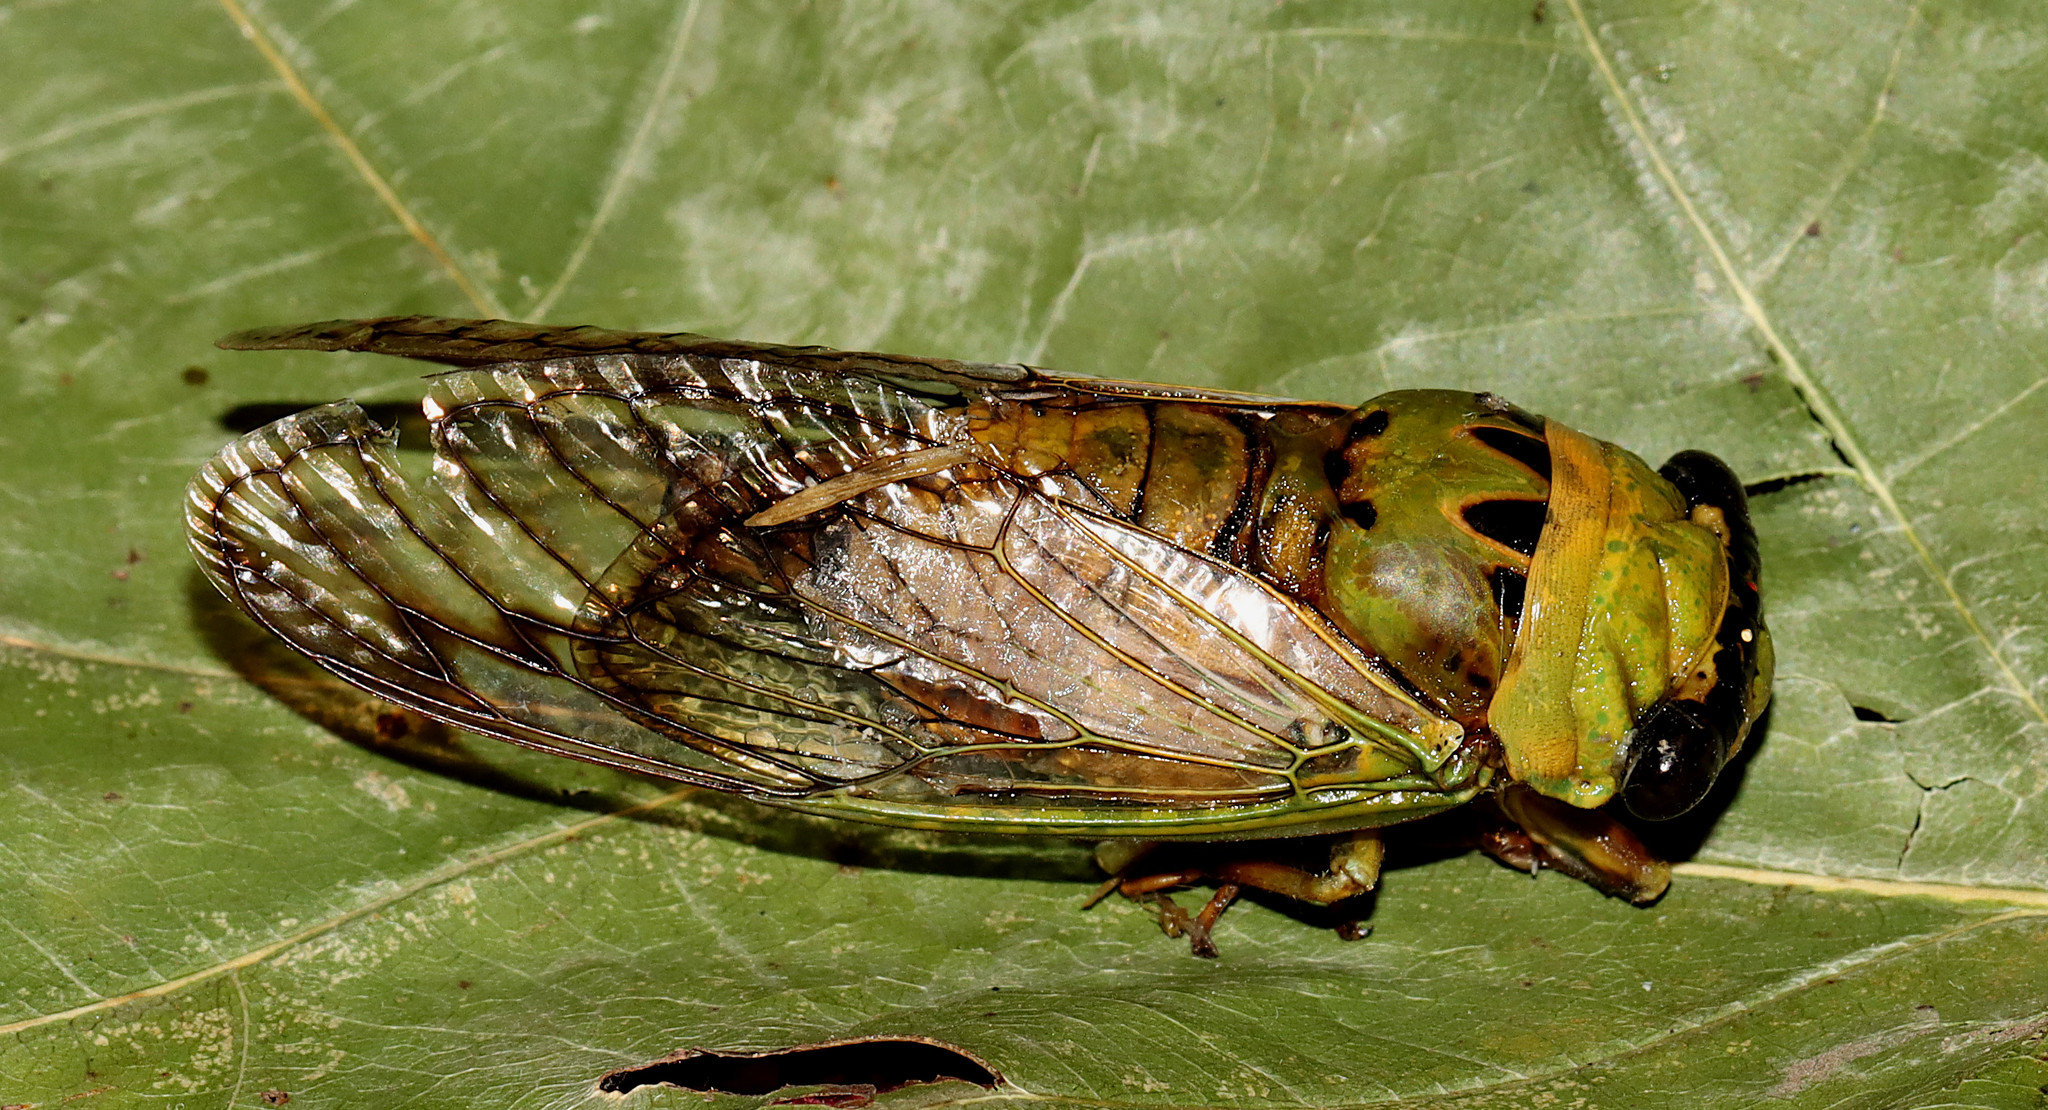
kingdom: Animalia
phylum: Arthropoda
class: Insecta
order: Hemiptera
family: Cicadidae
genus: Neotibicen
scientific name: Neotibicen superbus
